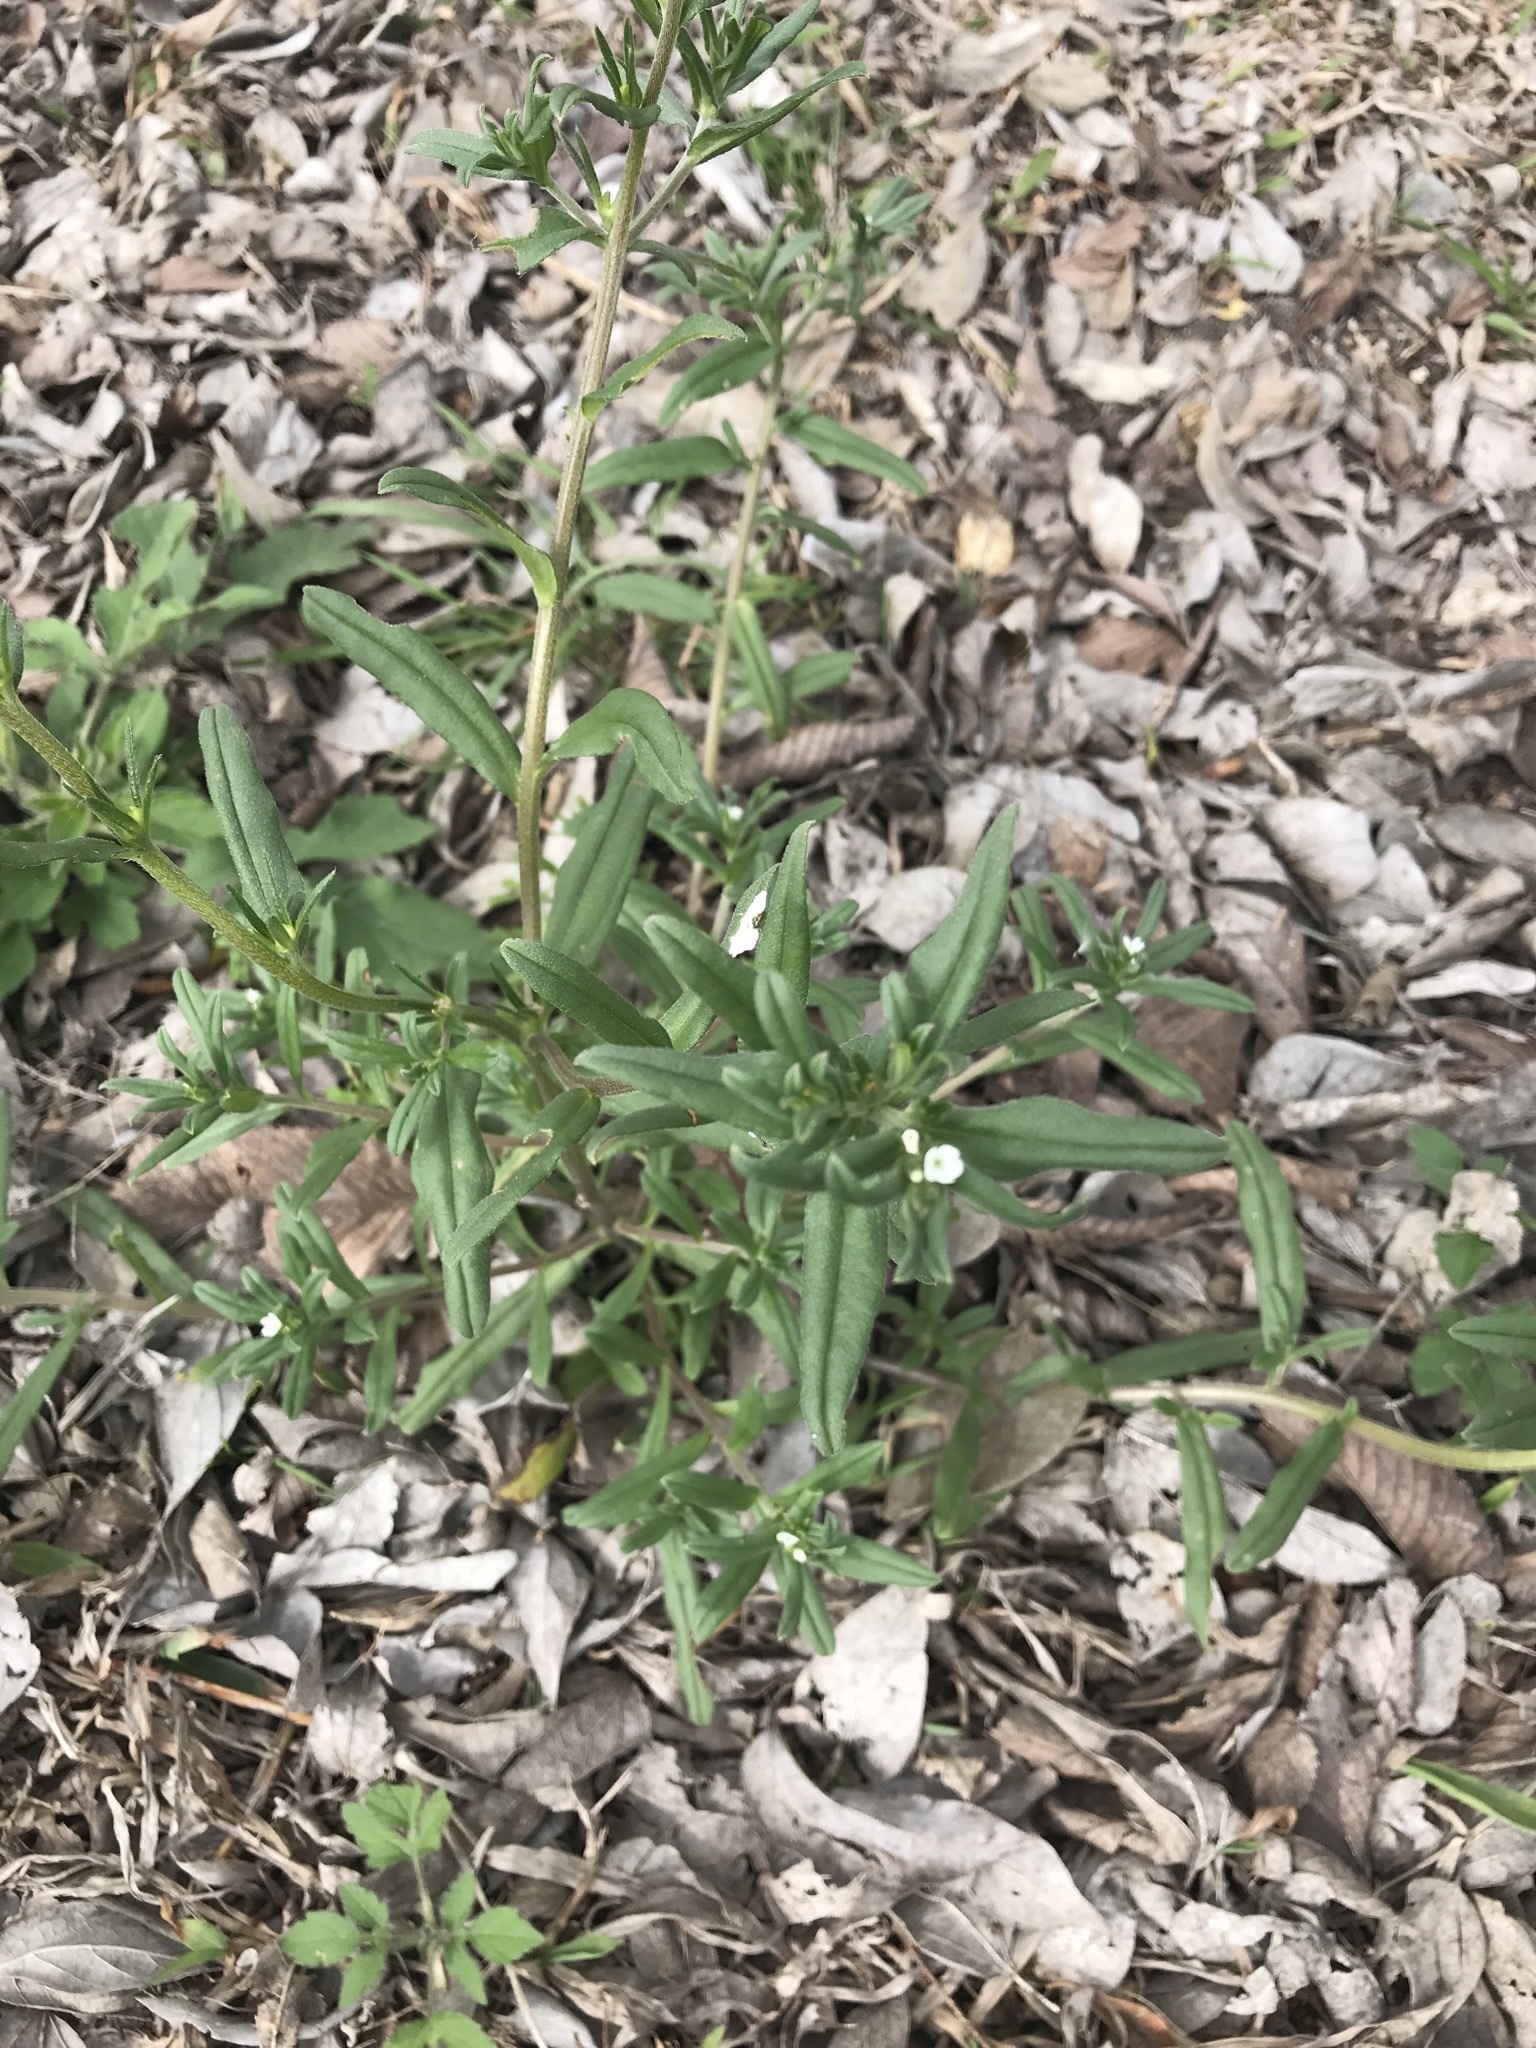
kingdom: Plantae
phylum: Tracheophyta
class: Magnoliopsida
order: Boraginales
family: Boraginaceae
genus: Buglossoides
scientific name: Buglossoides arvensis
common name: Corn gromwell
